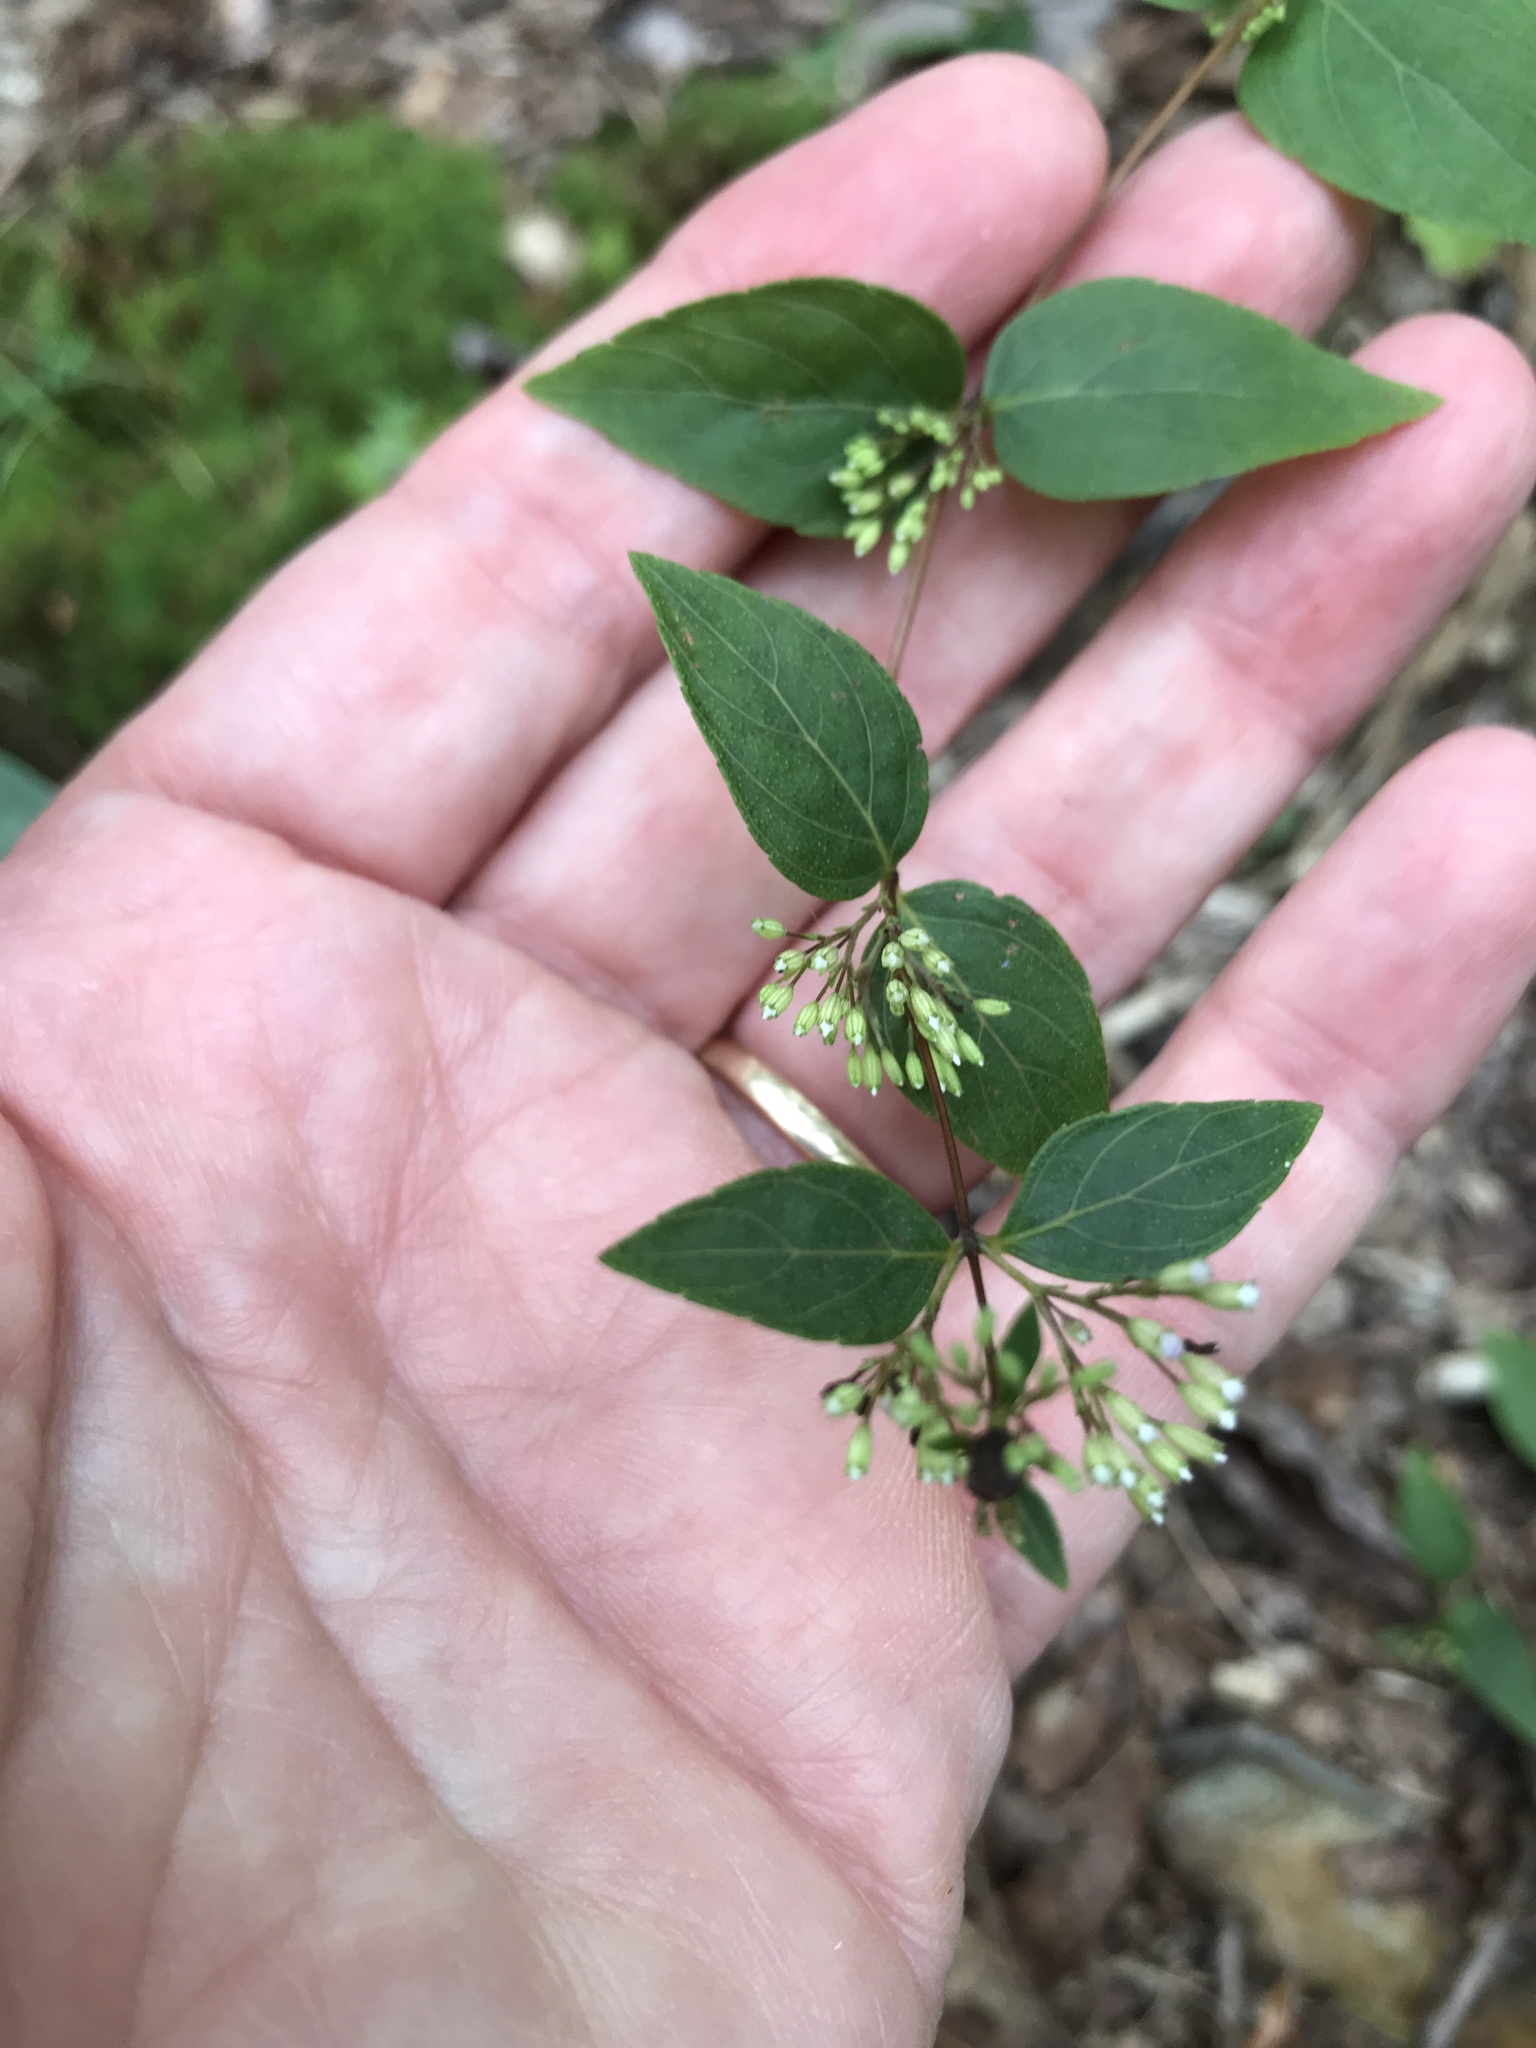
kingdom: Plantae
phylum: Tracheophyta
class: Magnoliopsida
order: Lamiales
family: Lamiaceae
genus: Cunila
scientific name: Cunila origanoides
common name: American dittany
